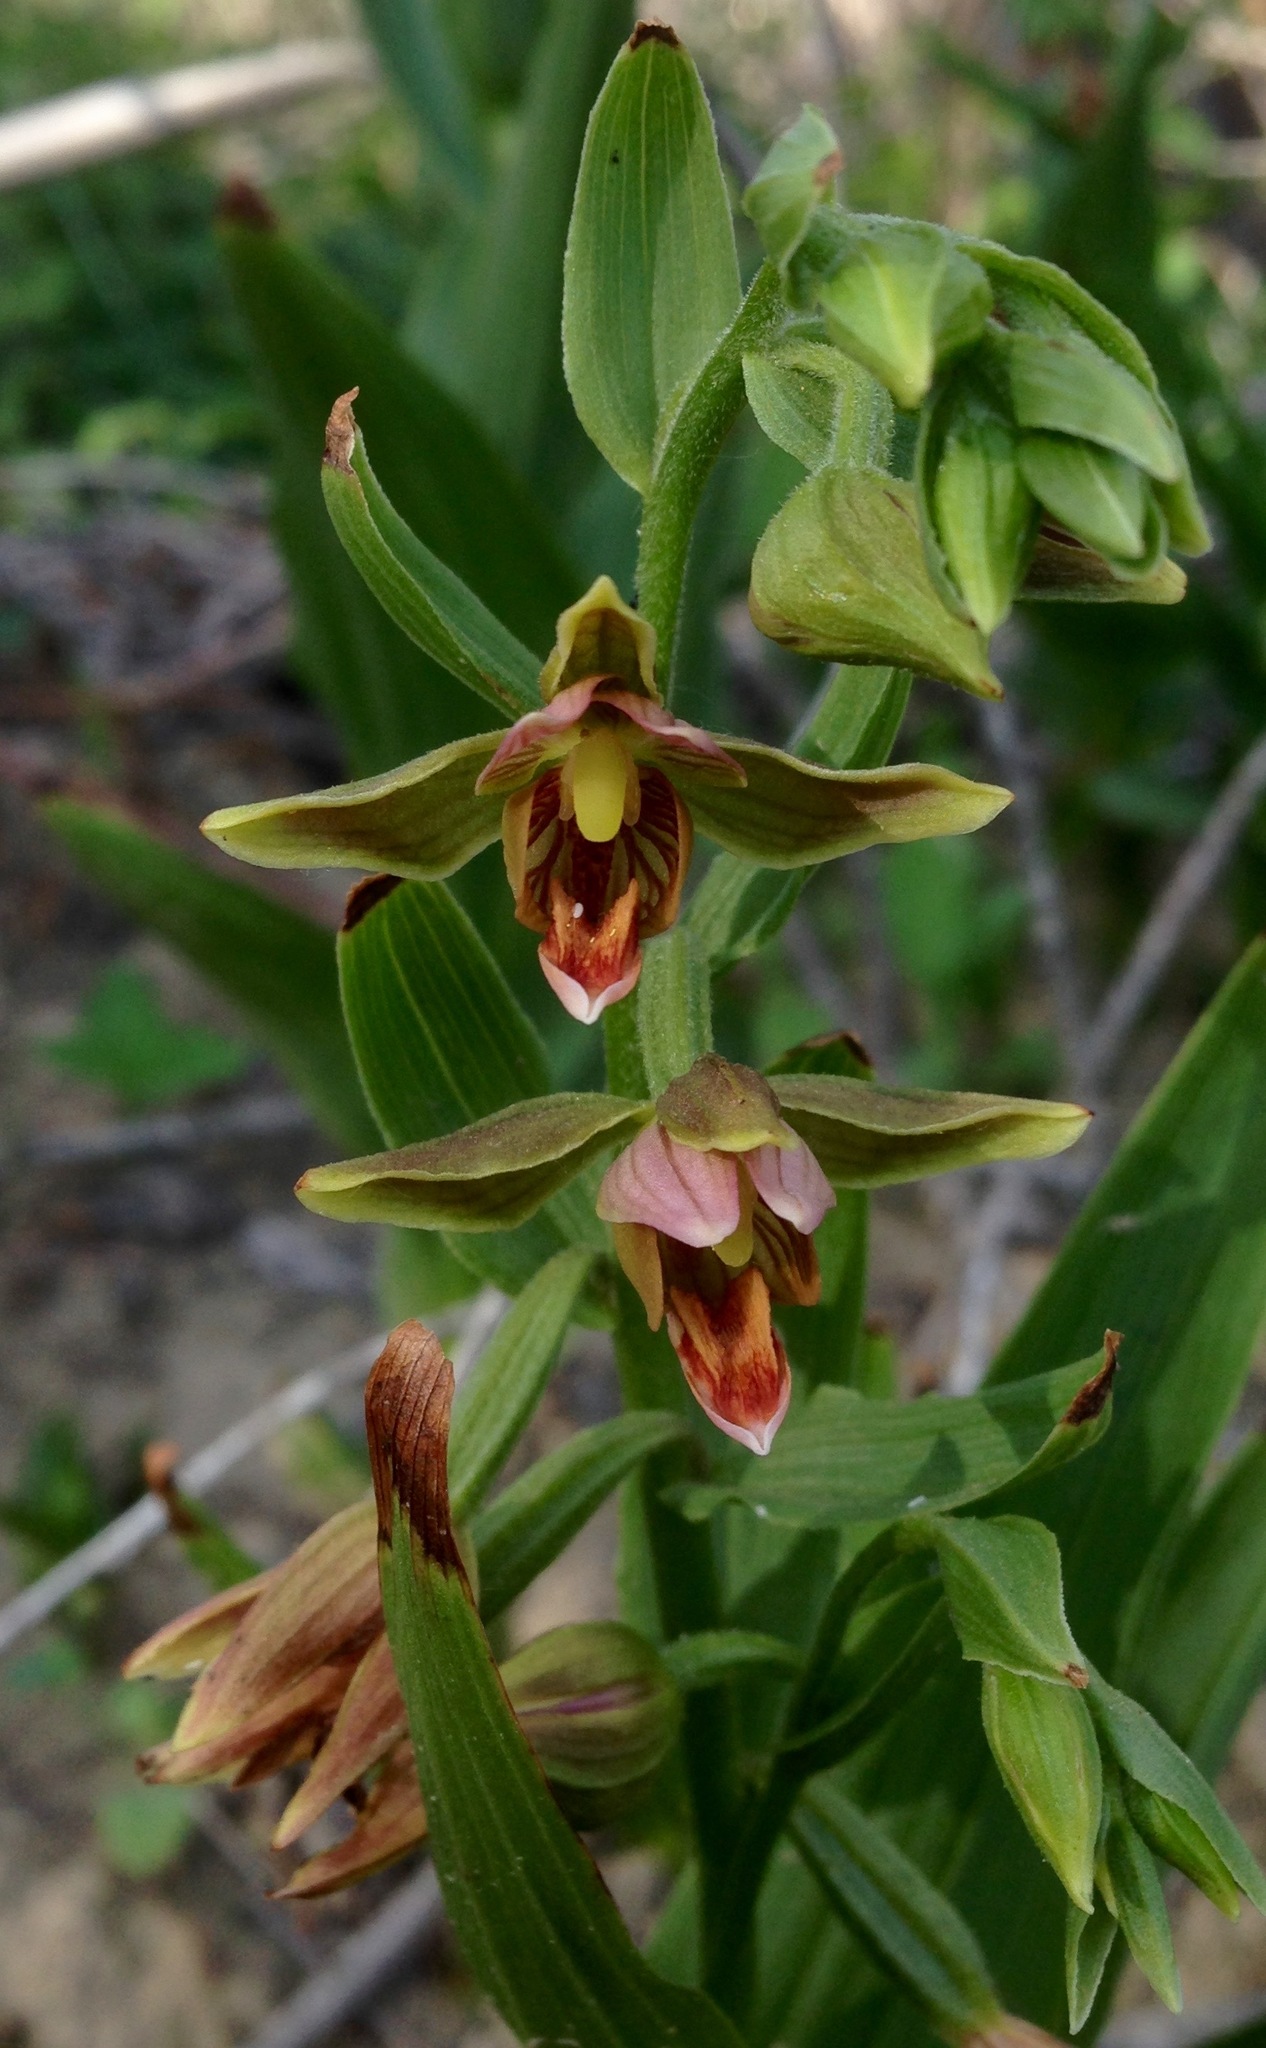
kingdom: Plantae
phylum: Tracheophyta
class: Liliopsida
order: Asparagales
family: Orchidaceae
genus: Epipactis
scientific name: Epipactis gigantea
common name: Chatterbox
